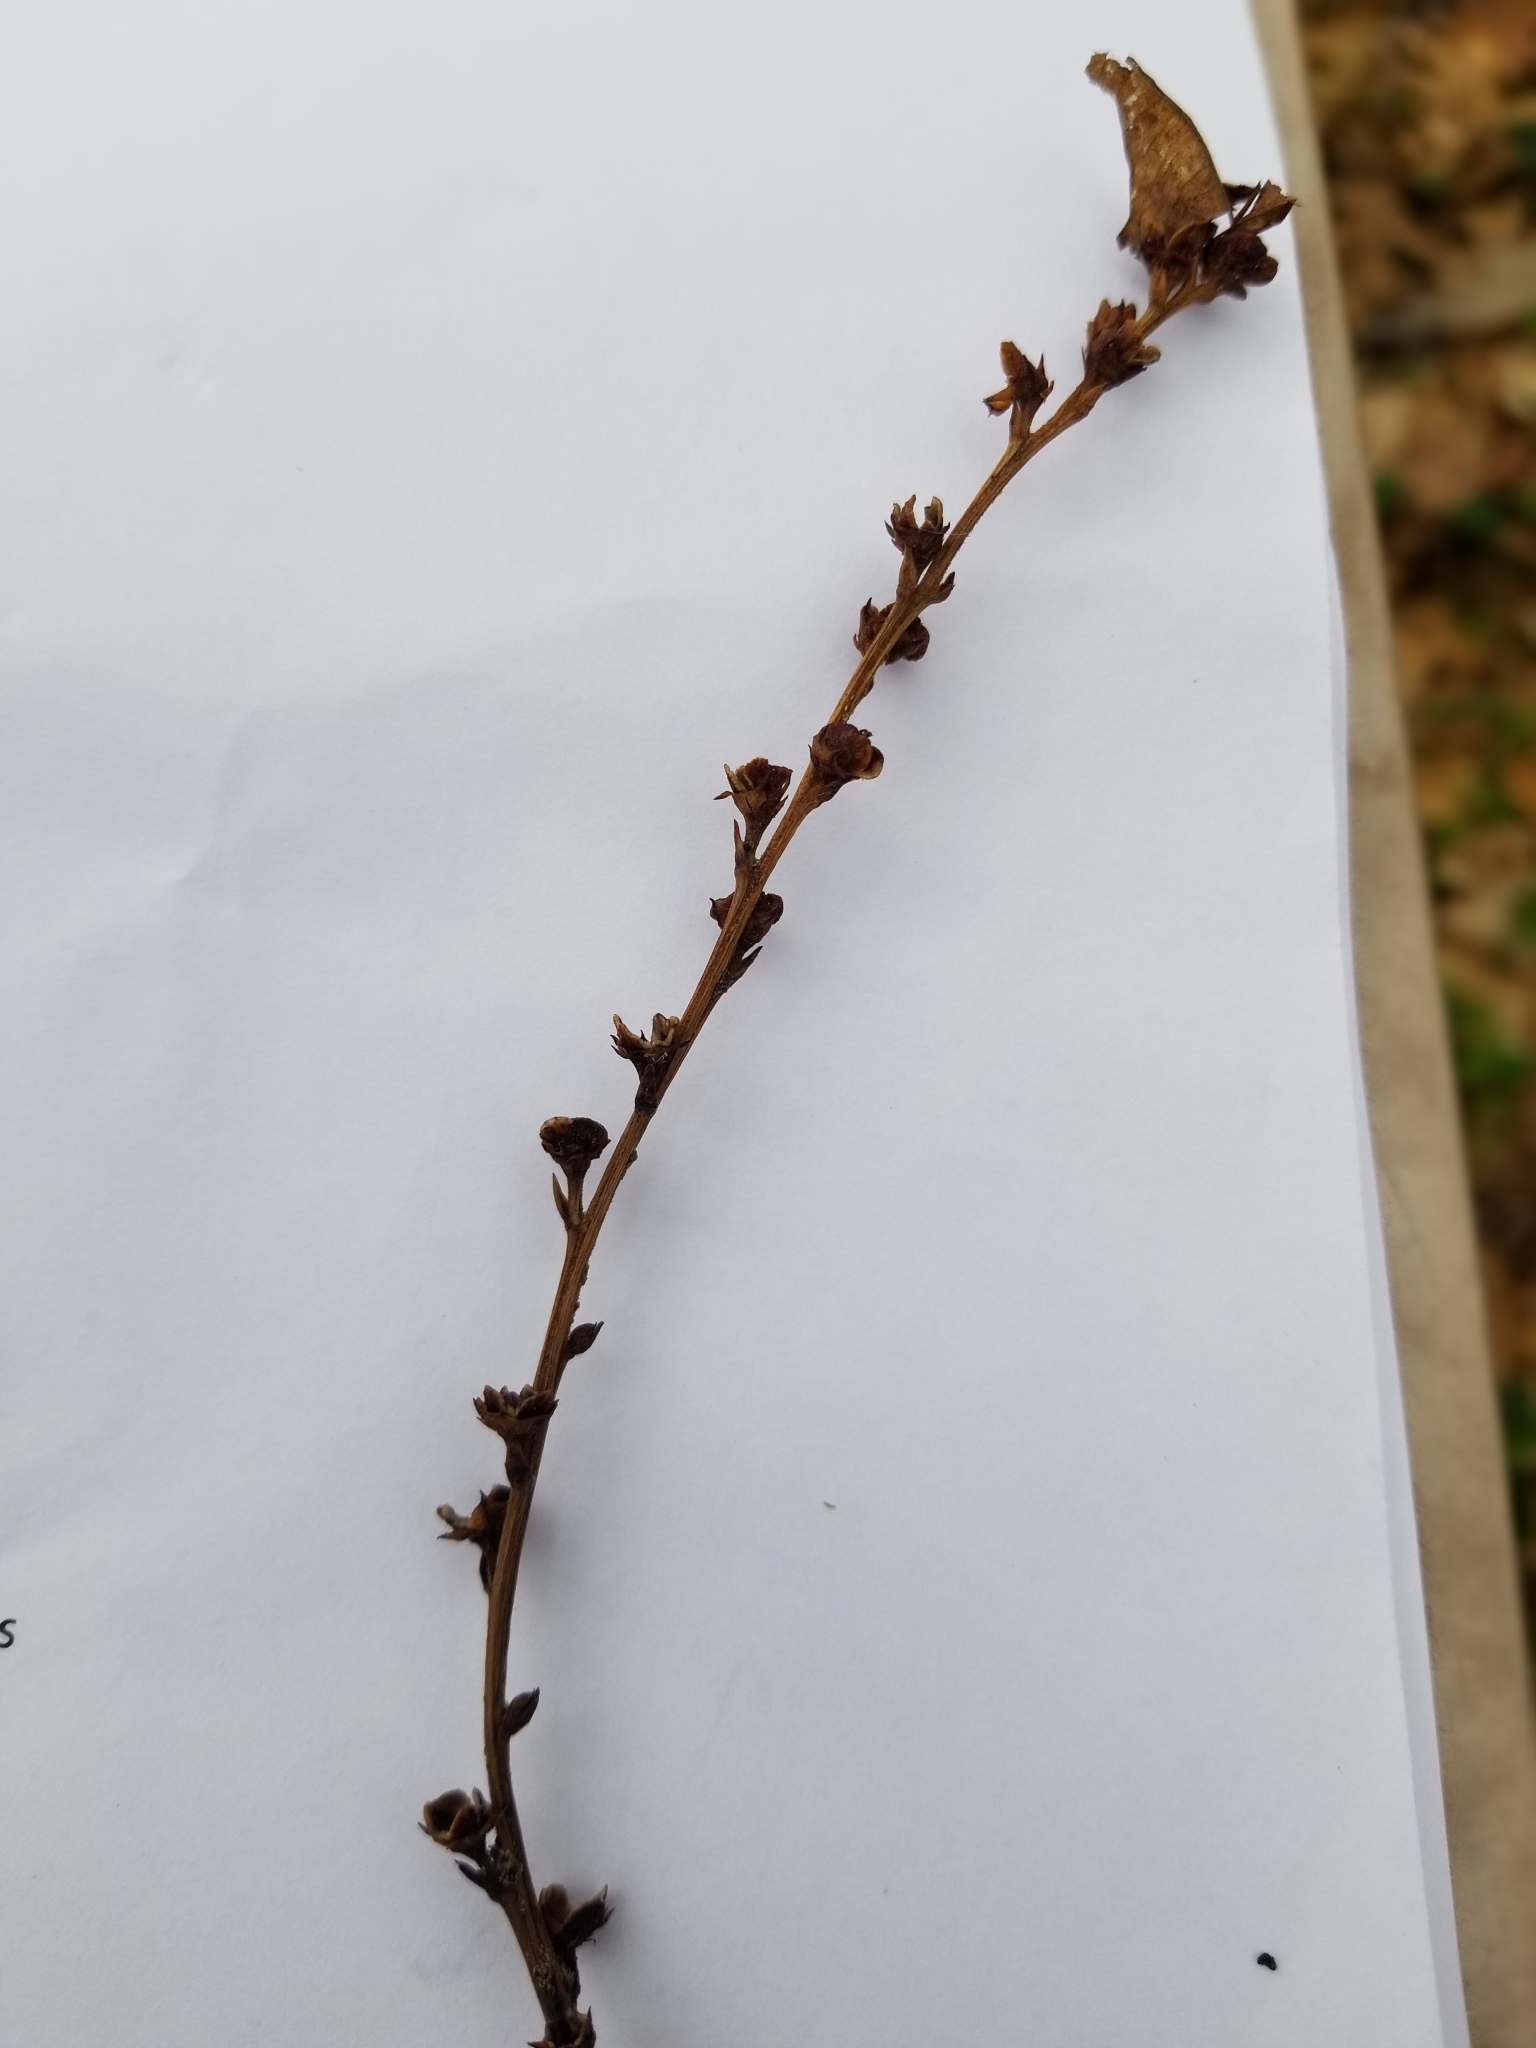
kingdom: Plantae
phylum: Tracheophyta
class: Magnoliopsida
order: Lamiales
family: Orobanchaceae
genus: Epifagus
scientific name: Epifagus virginiana
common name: Beechdrops
